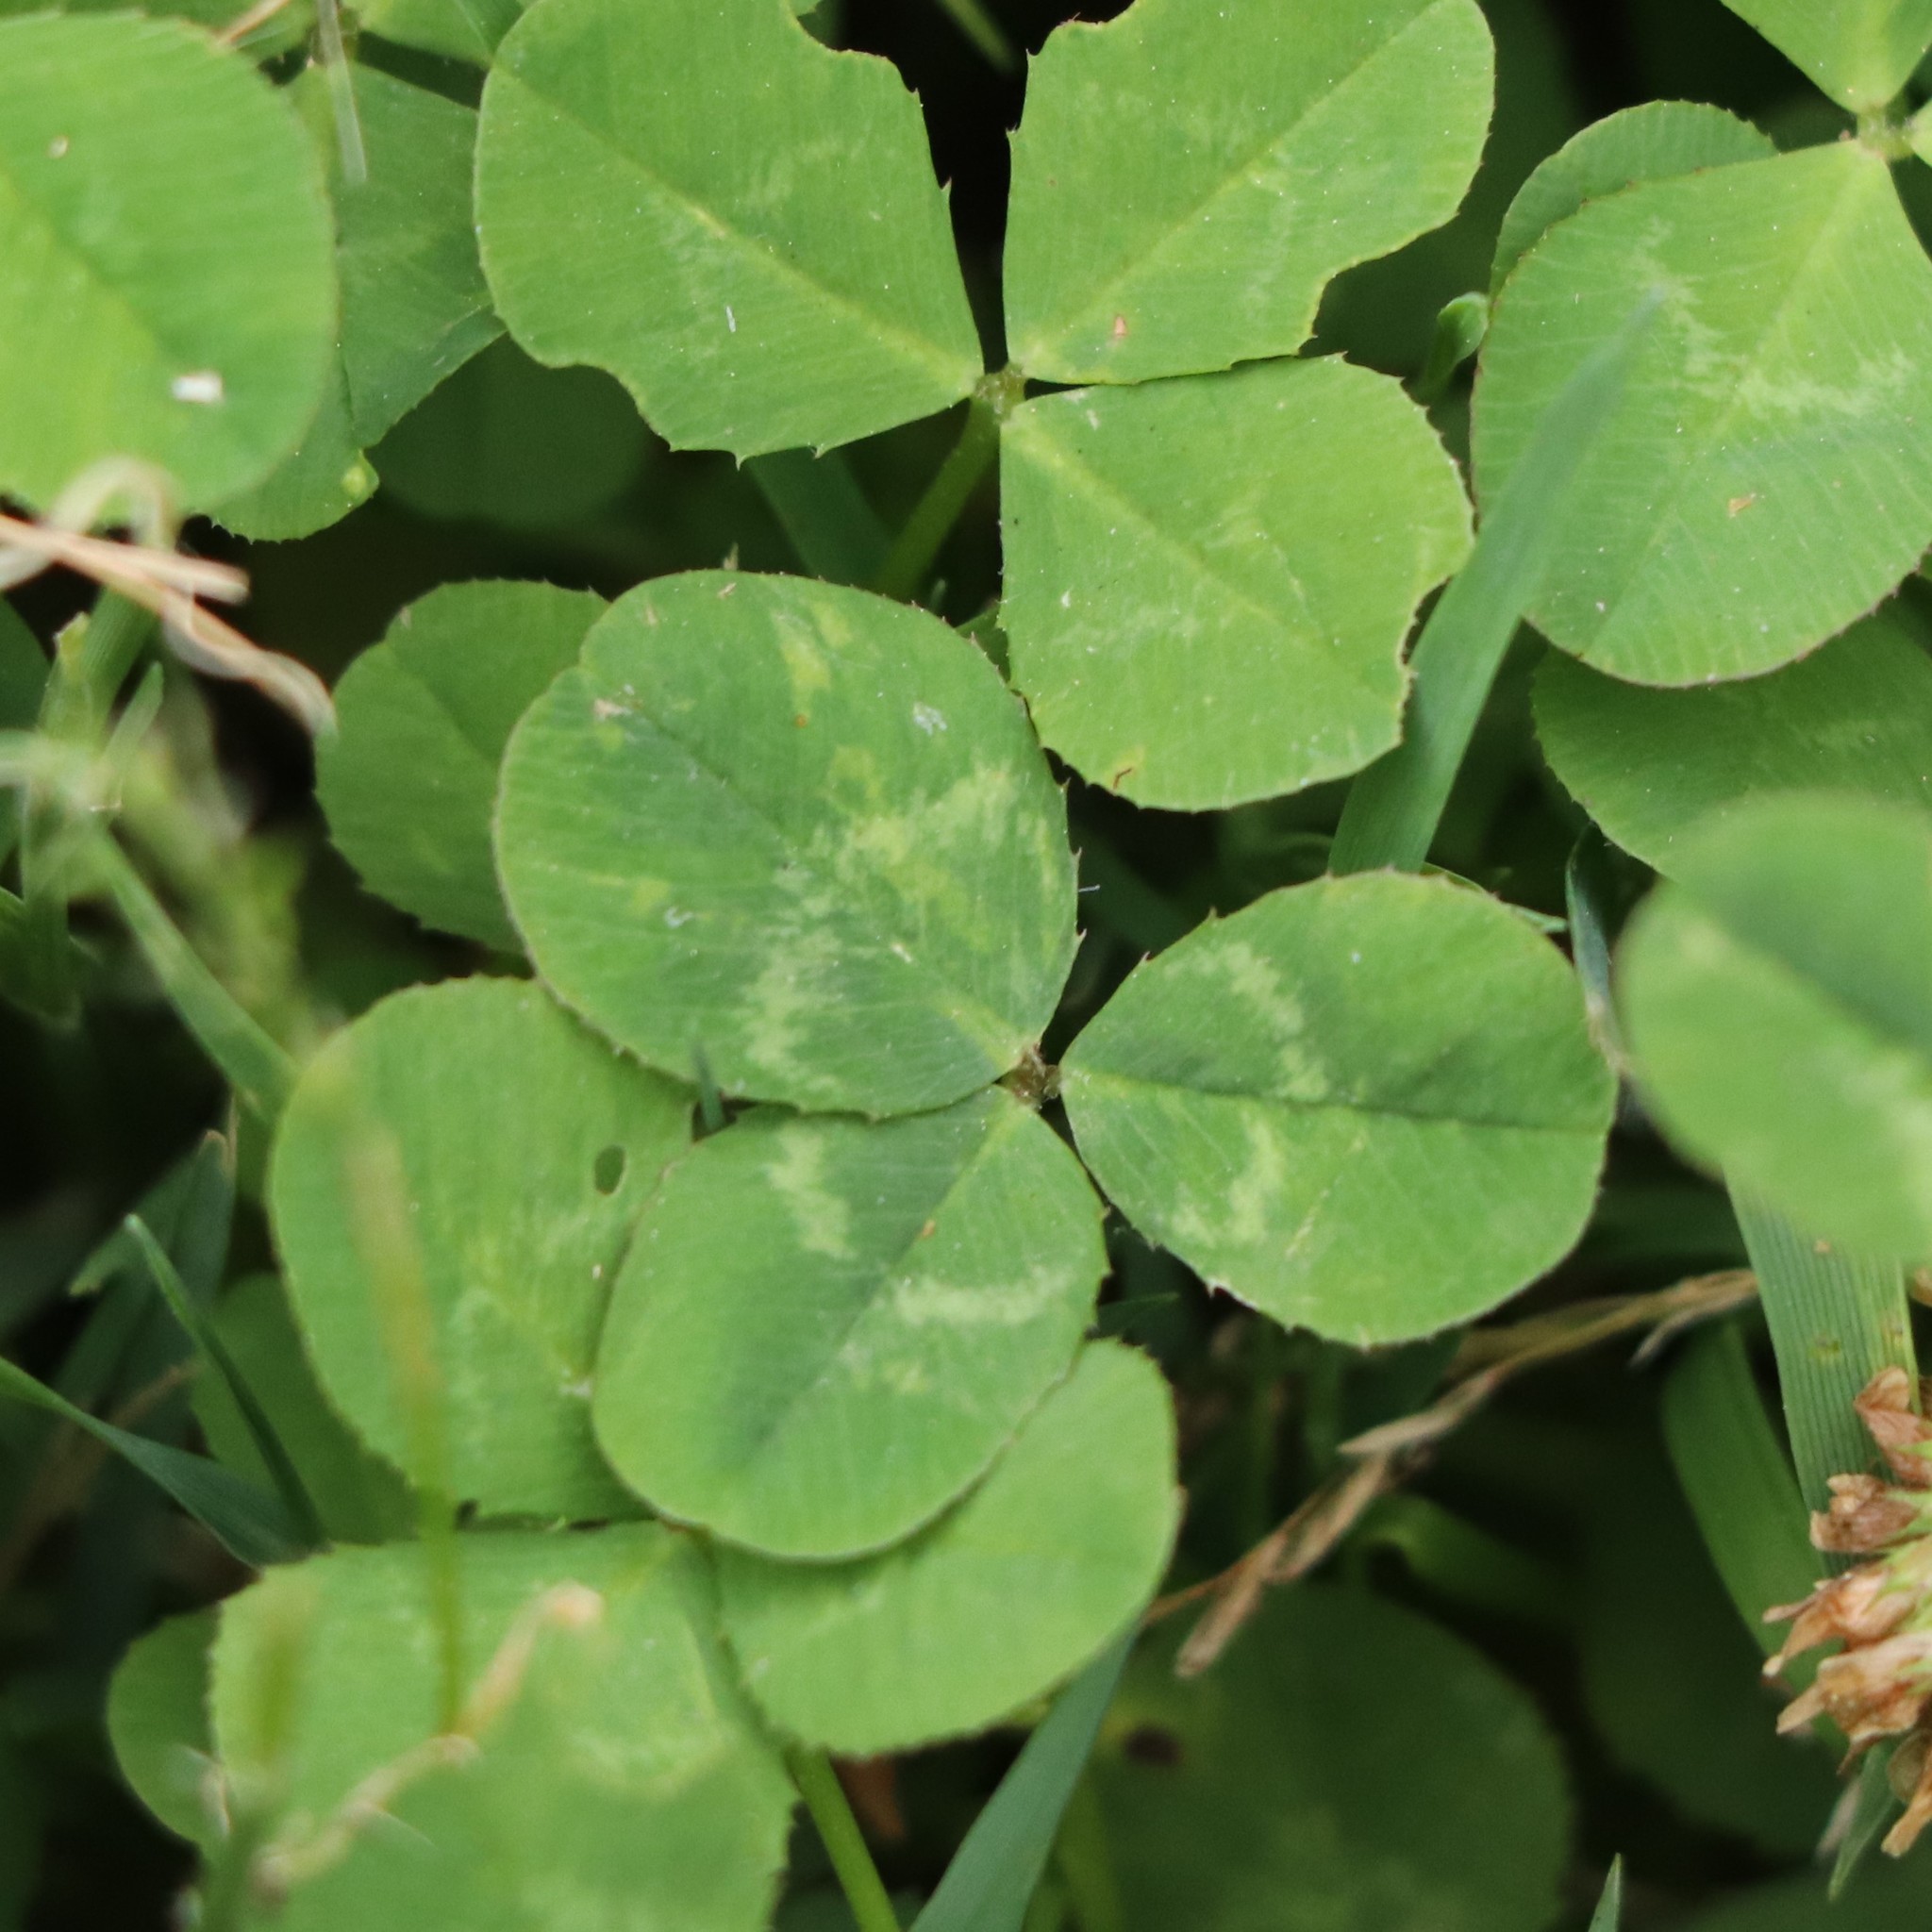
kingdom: Plantae
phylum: Tracheophyta
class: Magnoliopsida
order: Fabales
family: Fabaceae
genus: Trifolium
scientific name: Trifolium repens
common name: White clover
